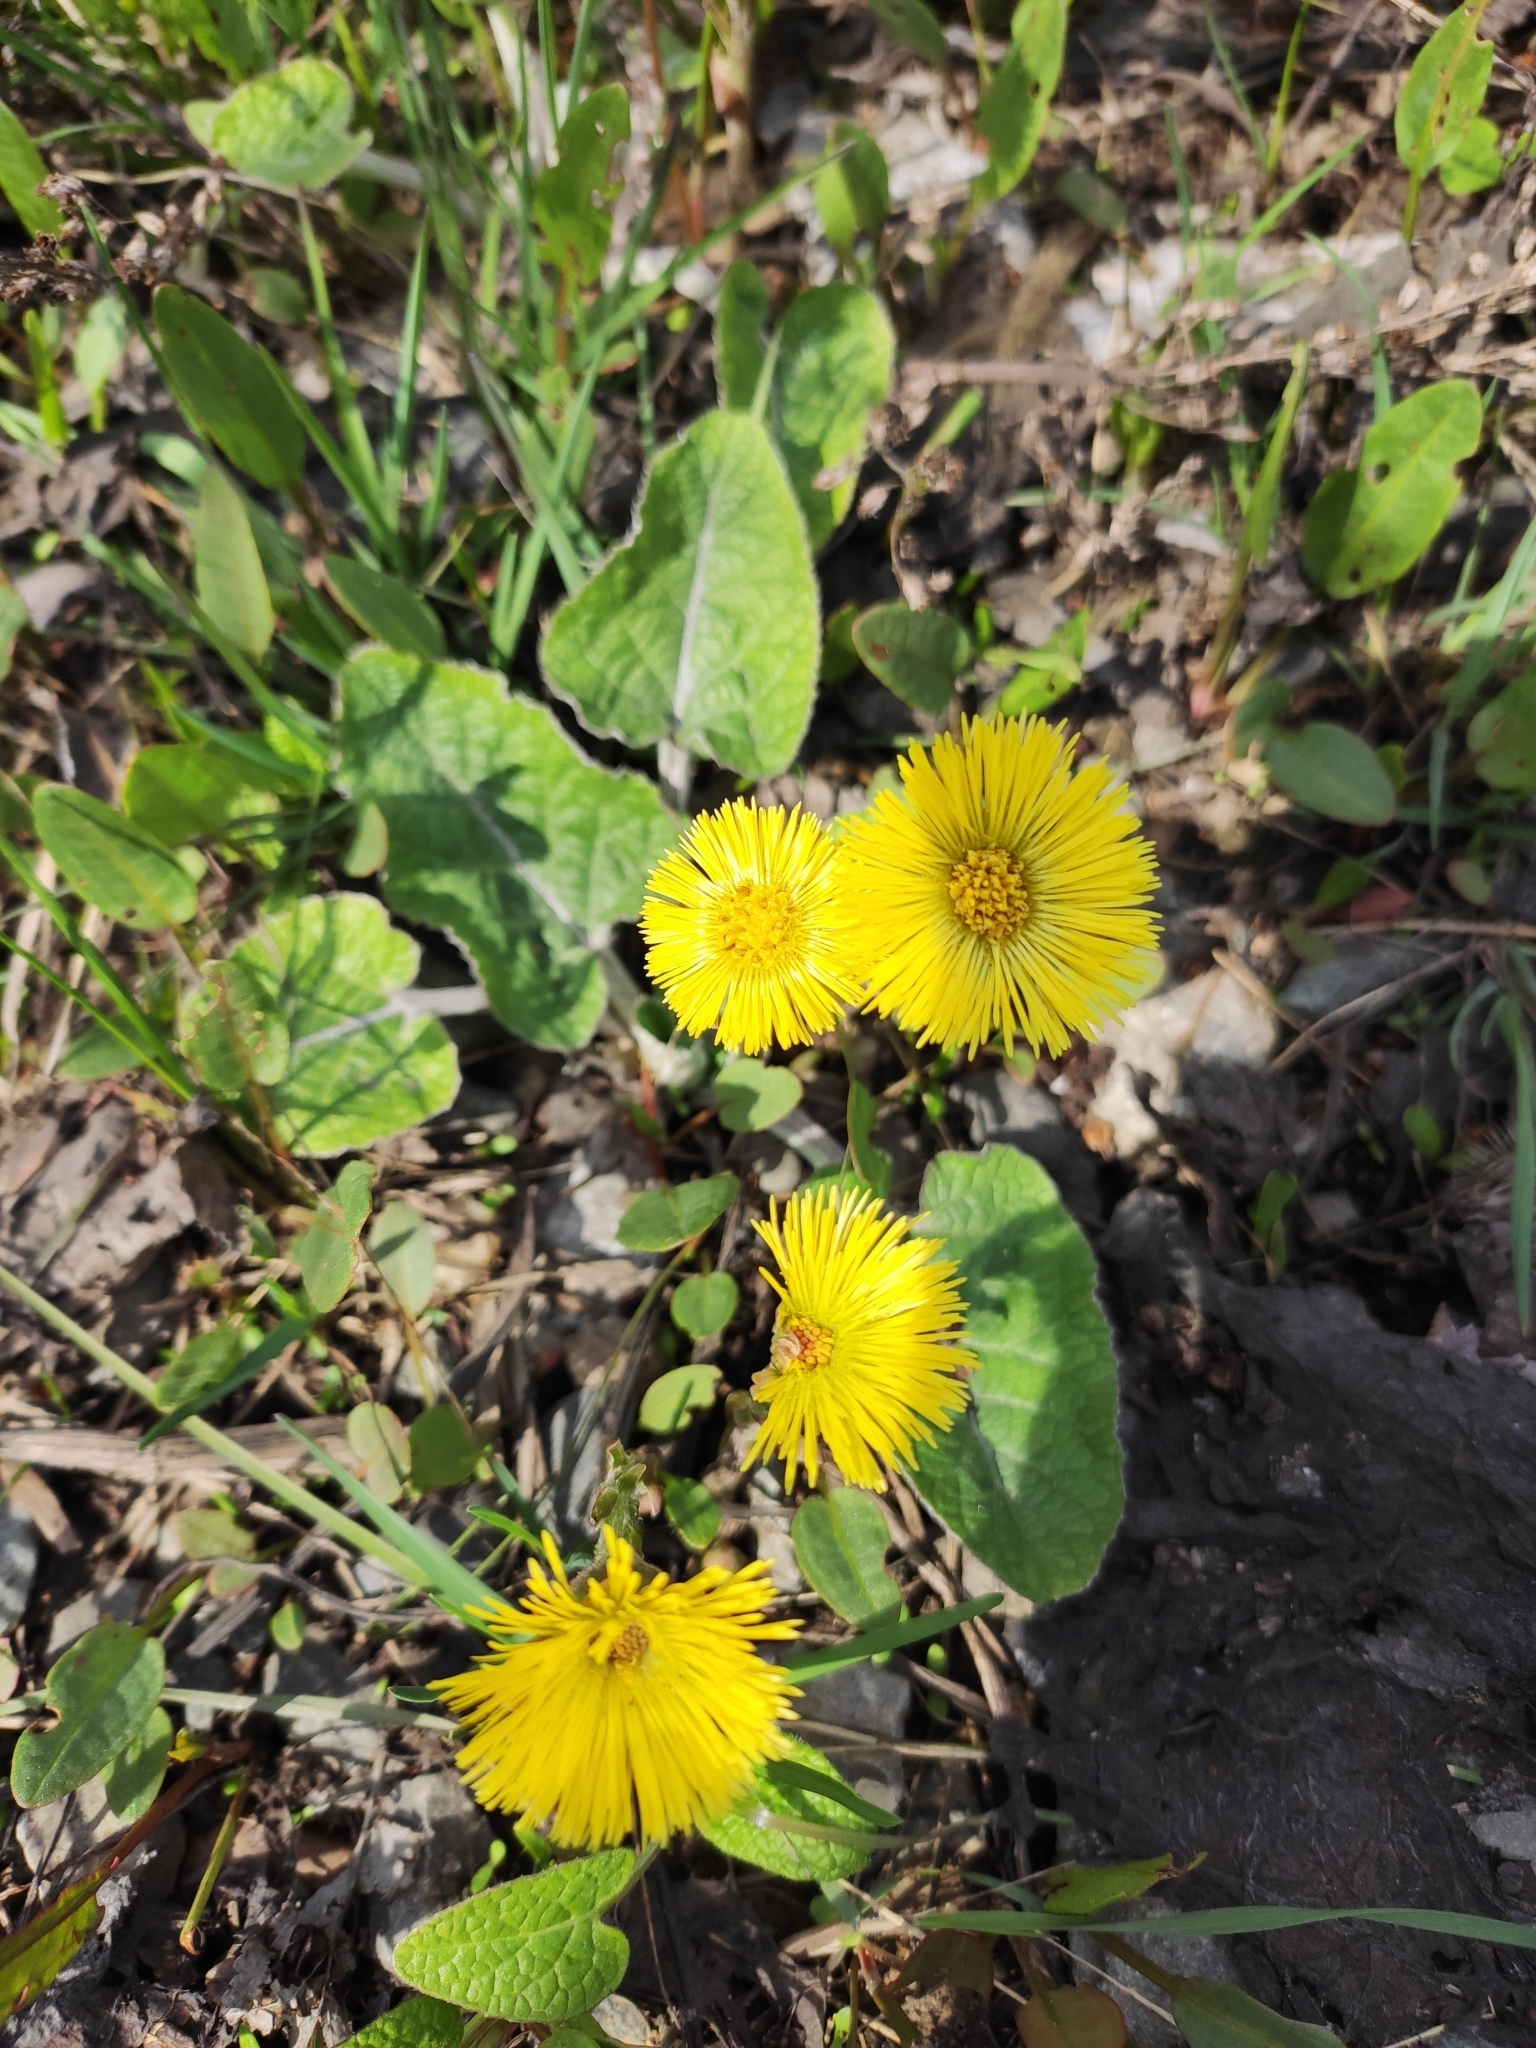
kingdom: Plantae
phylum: Tracheophyta
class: Magnoliopsida
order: Asterales
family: Asteraceae
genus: Tussilago
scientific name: Tussilago farfara
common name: Coltsfoot
